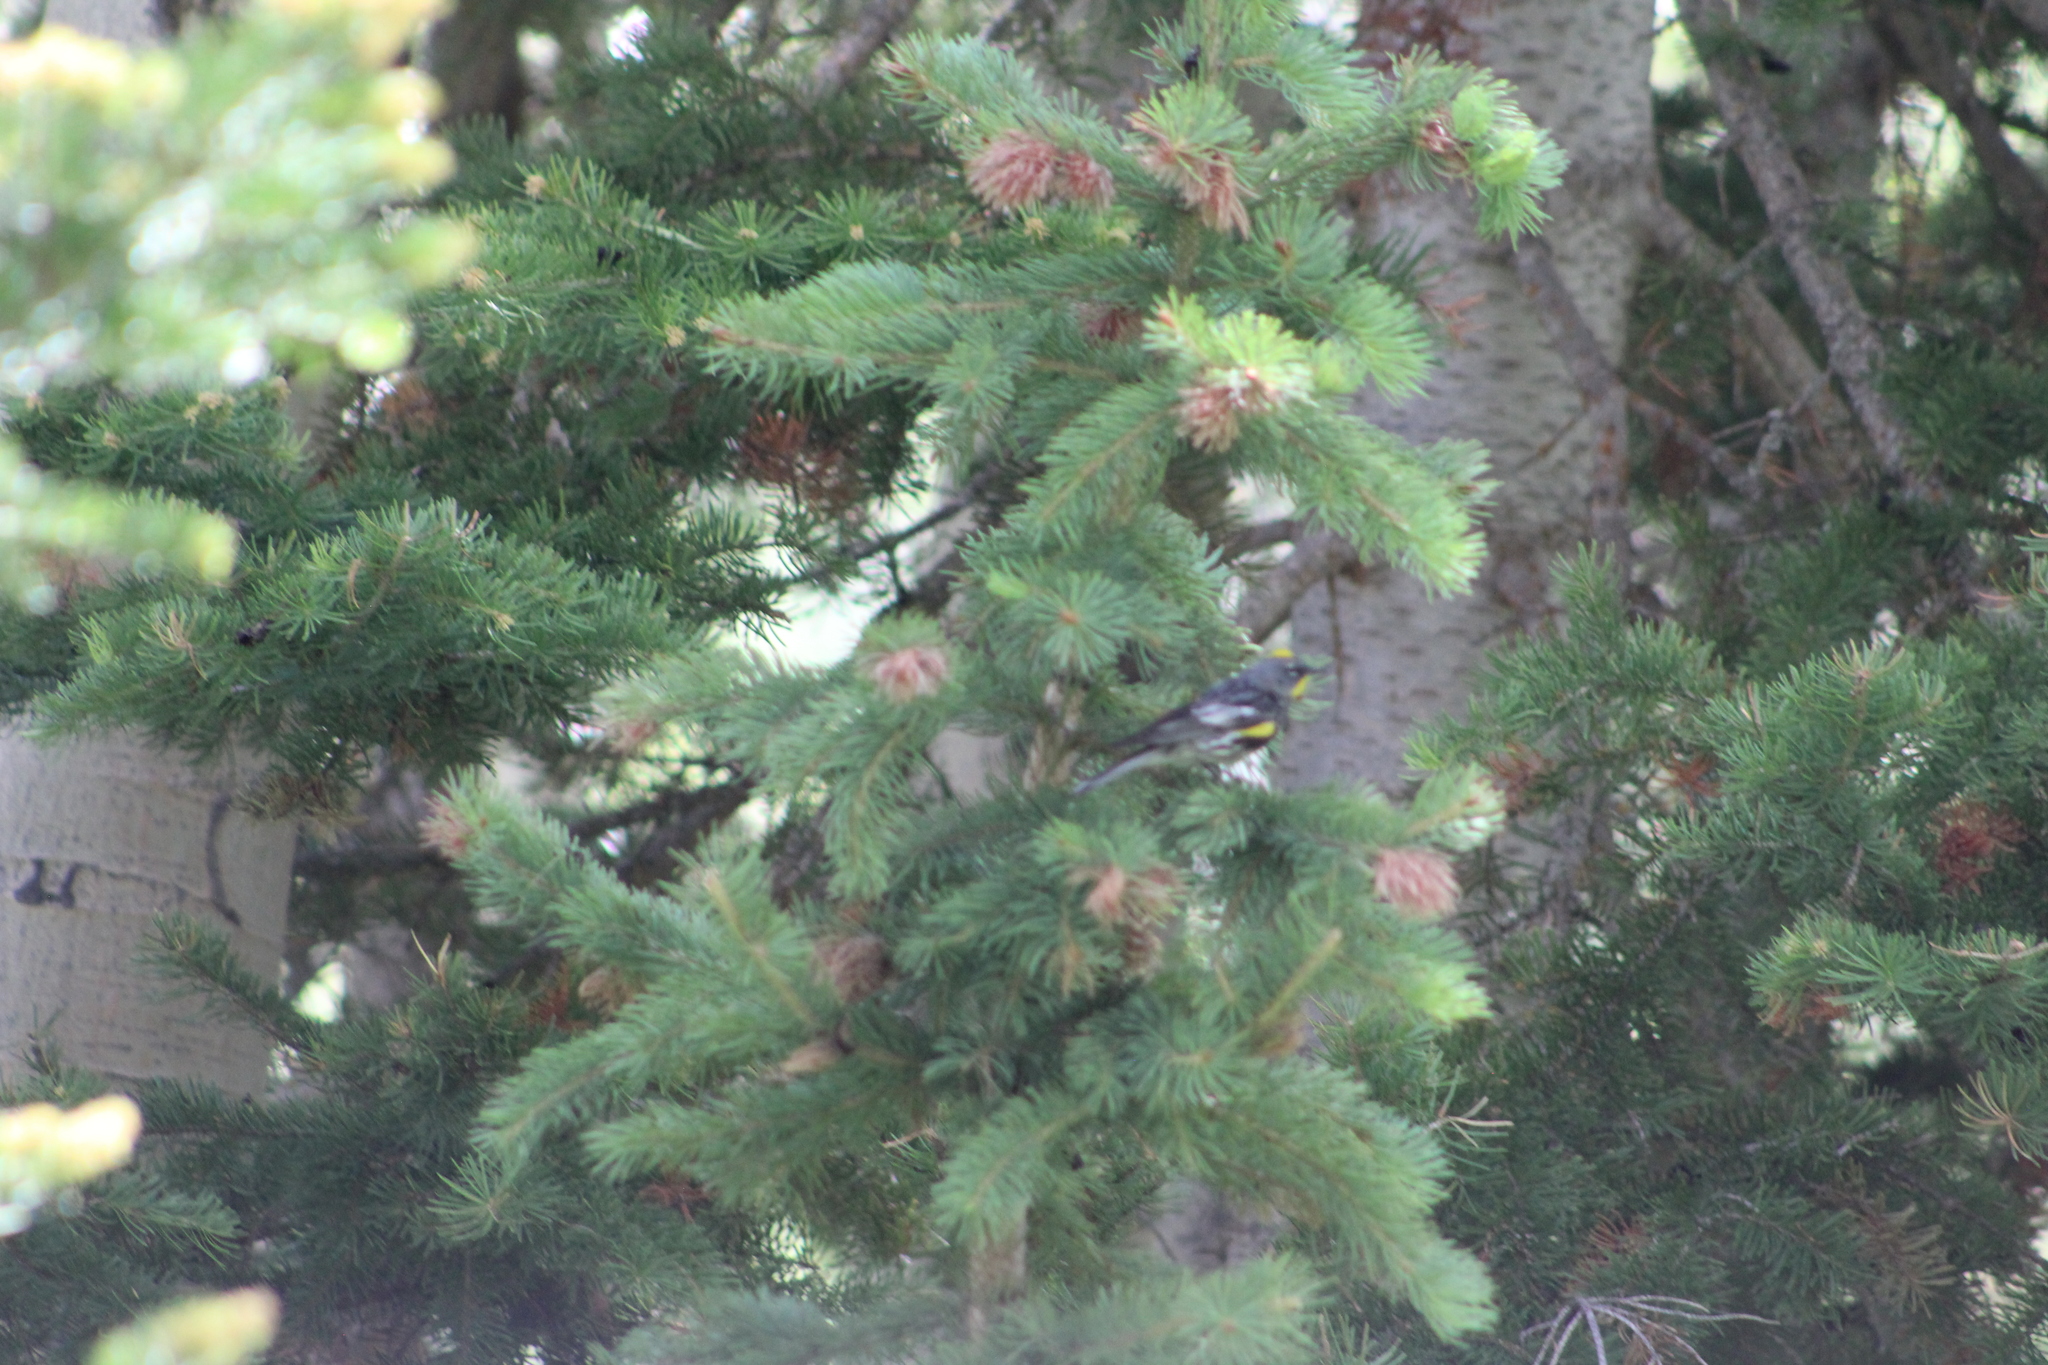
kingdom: Animalia
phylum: Chordata
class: Aves
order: Passeriformes
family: Parulidae
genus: Setophaga
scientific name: Setophaga auduboni
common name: Audubon's warbler
